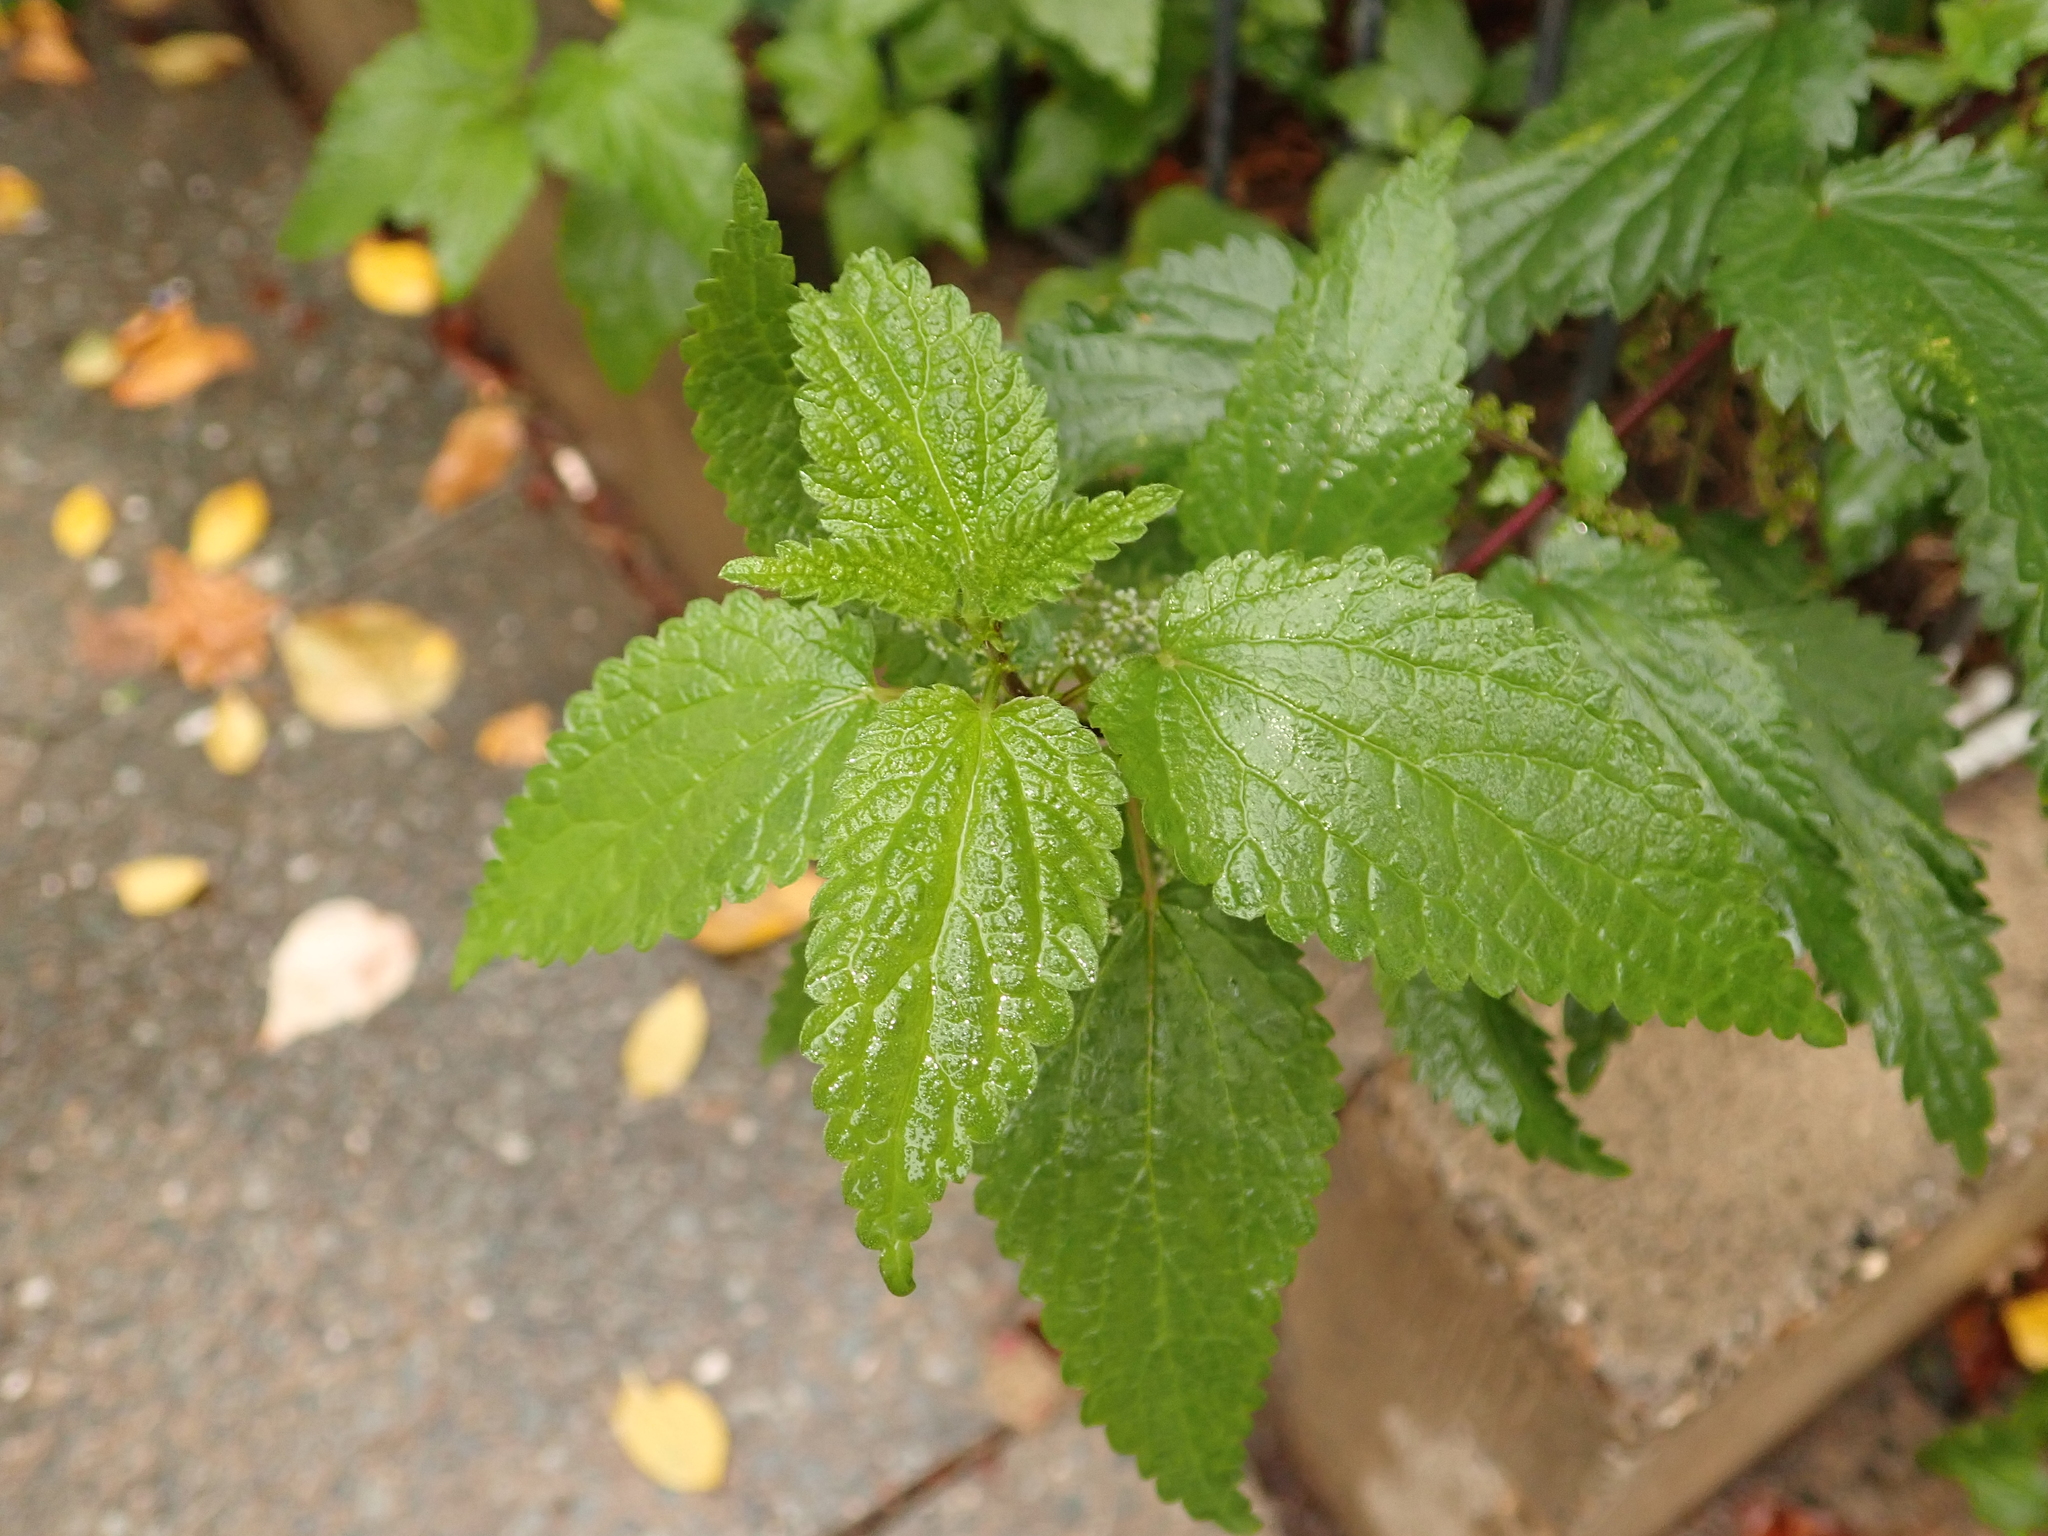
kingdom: Plantae
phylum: Tracheophyta
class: Magnoliopsida
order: Rosales
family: Urticaceae
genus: Urtica
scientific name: Urtica dioica
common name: Common nettle
